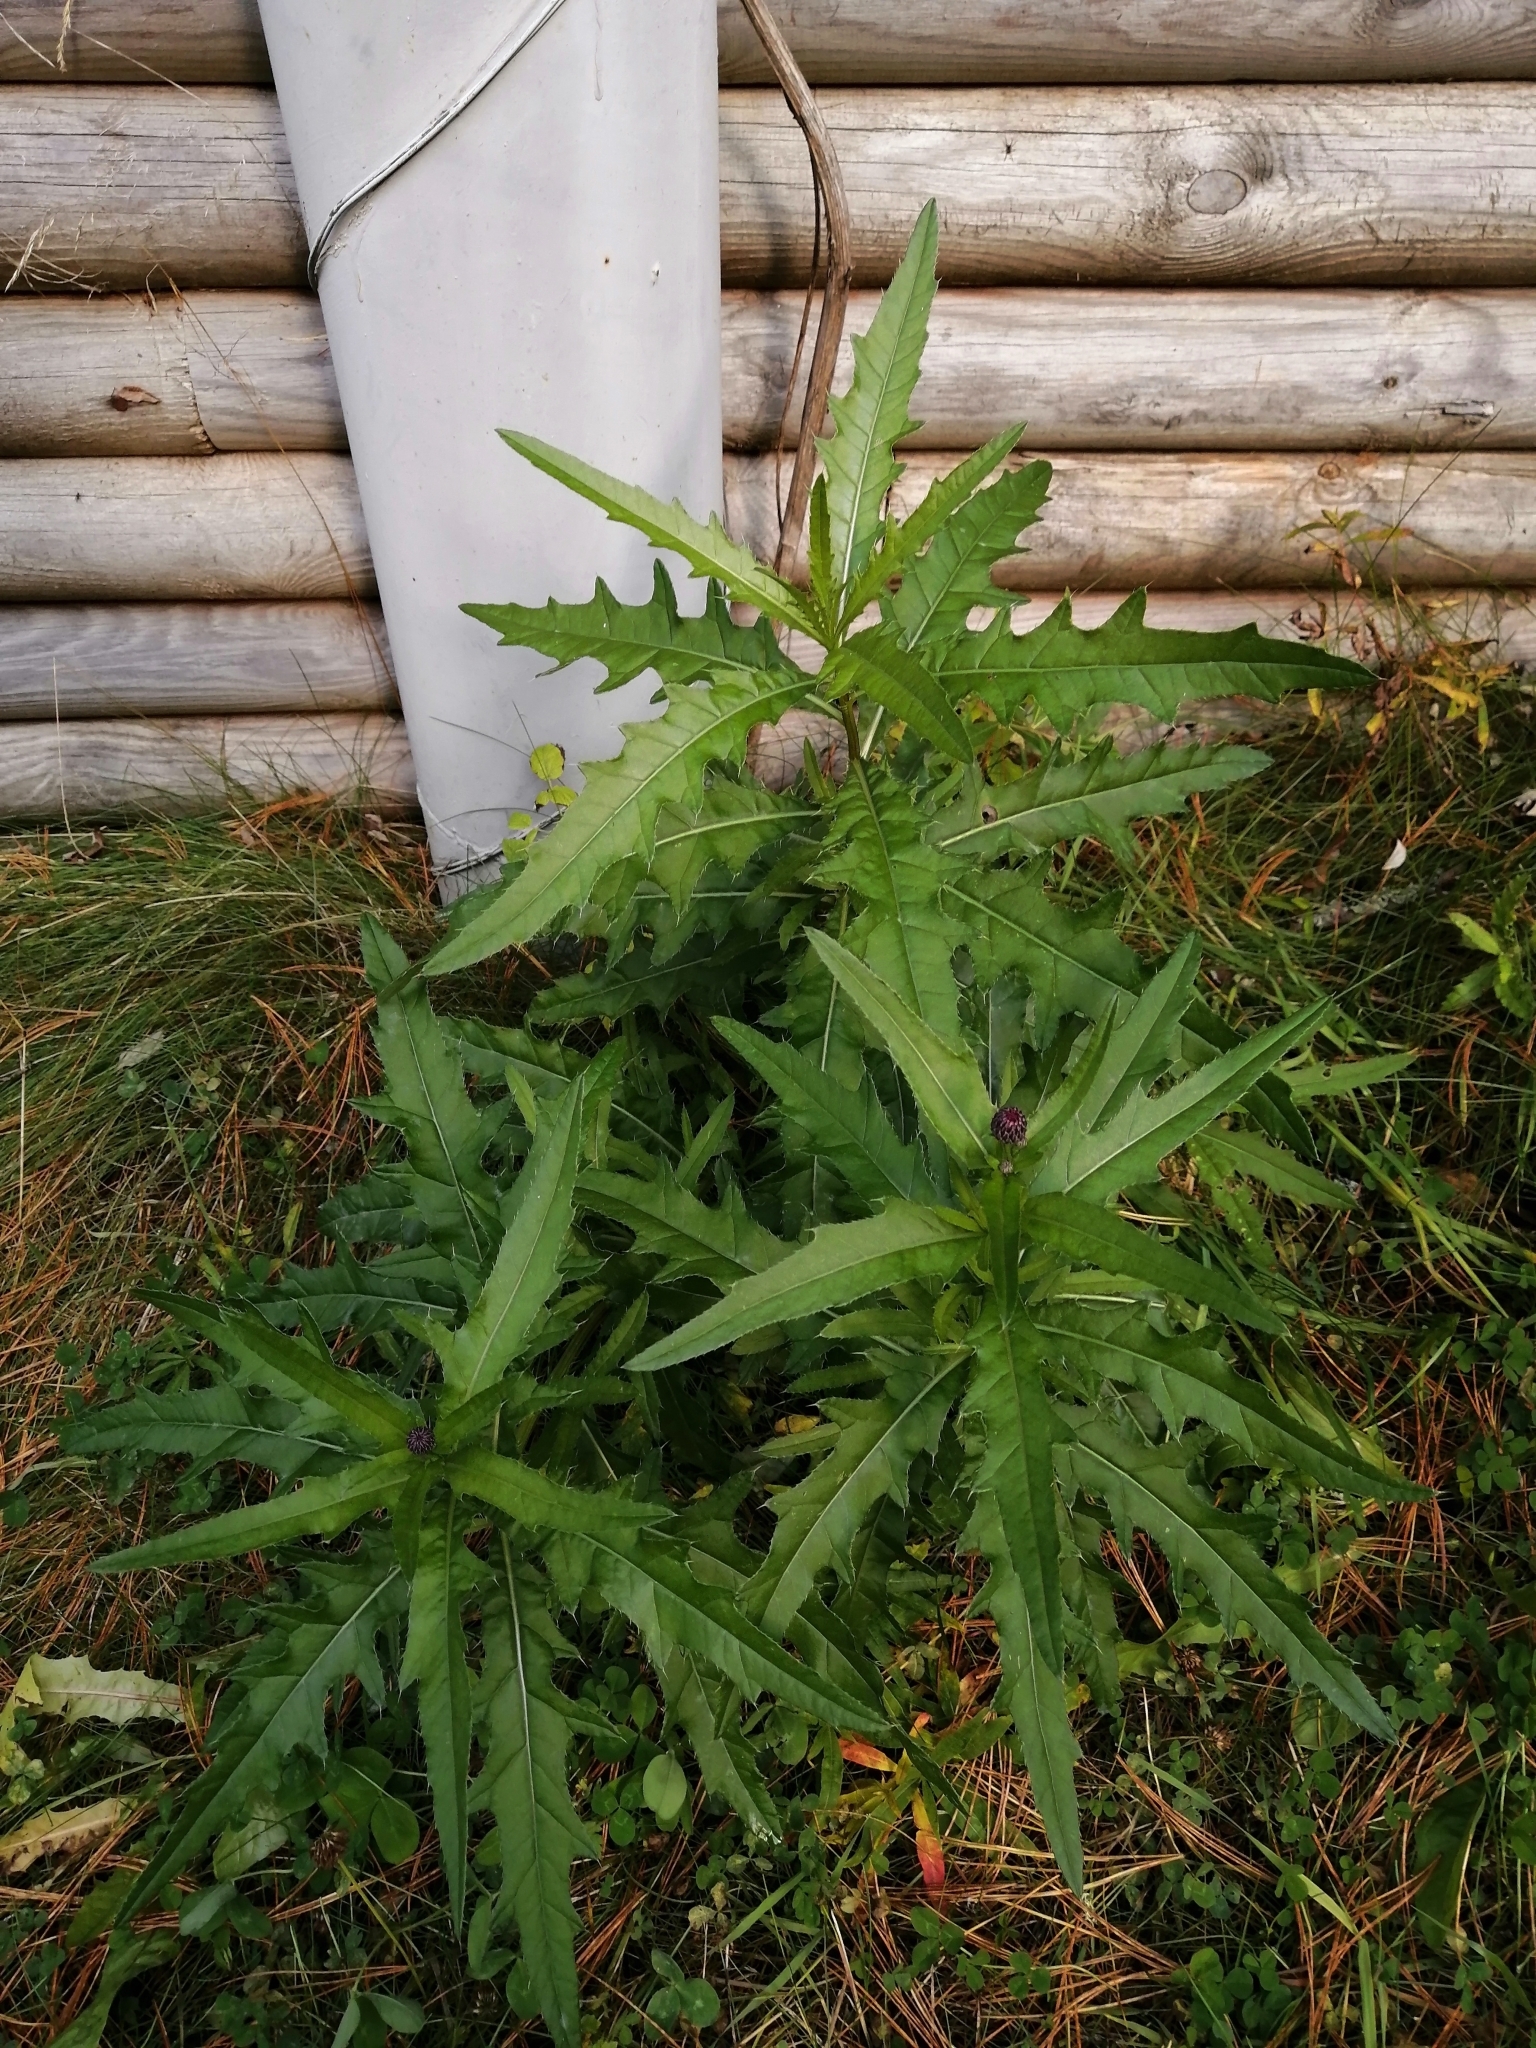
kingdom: Plantae
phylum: Tracheophyta
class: Magnoliopsida
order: Asterales
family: Asteraceae
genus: Cirsium
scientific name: Cirsium arvense
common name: Creeping thistle
